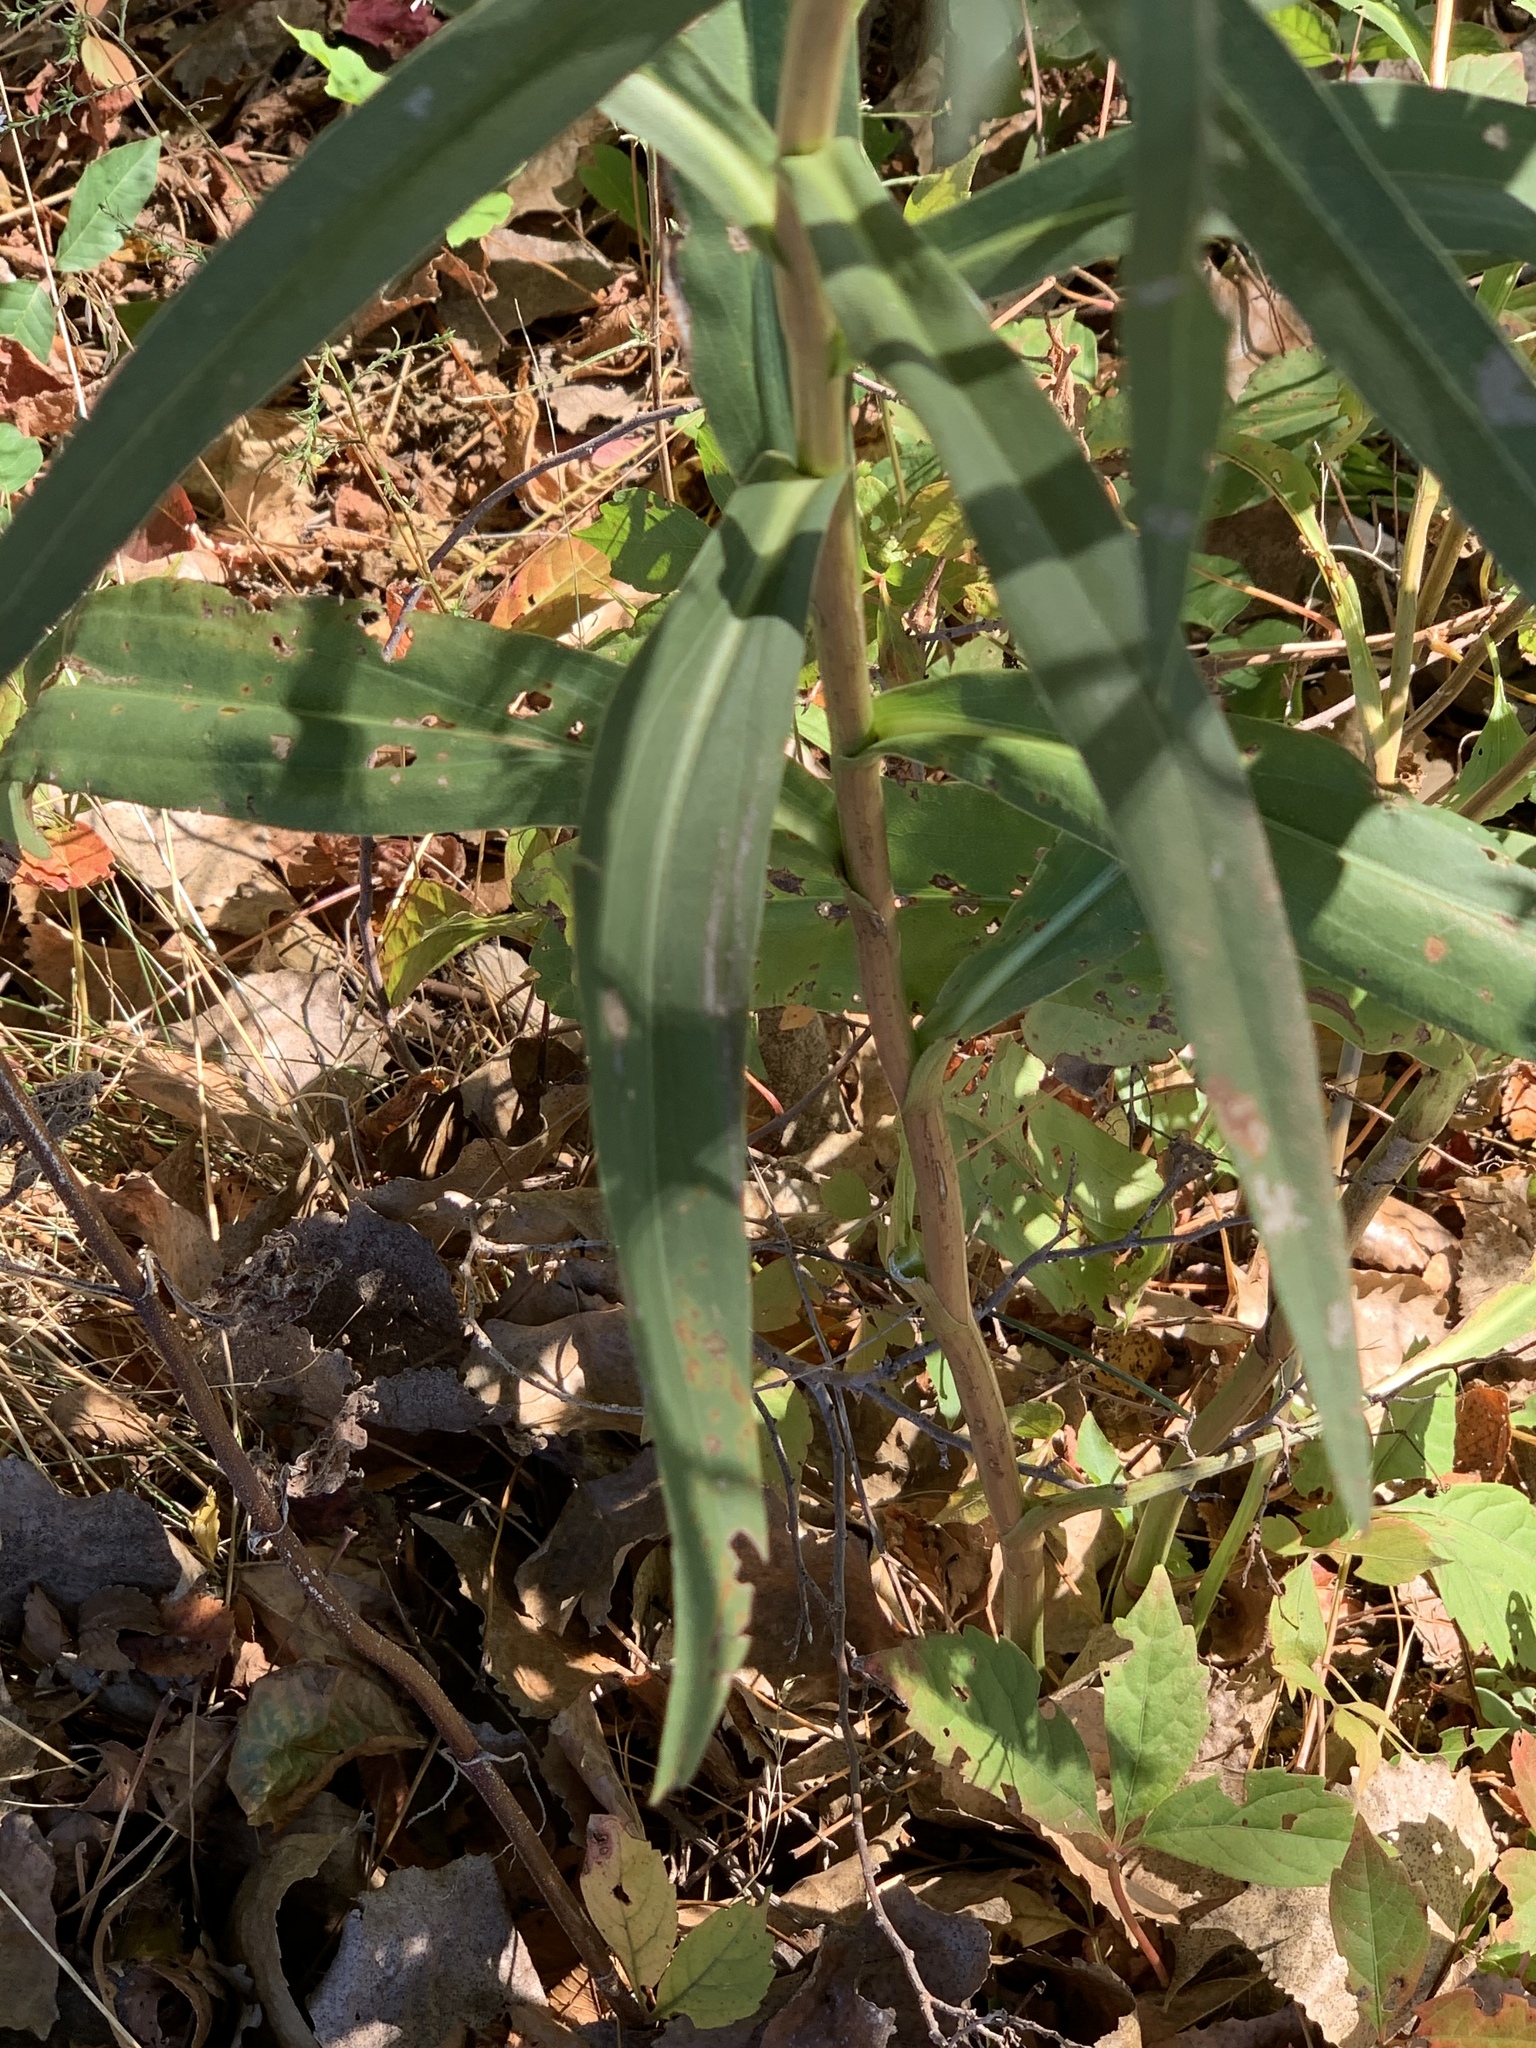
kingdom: Plantae
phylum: Tracheophyta
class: Magnoliopsida
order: Asterales
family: Asteraceae
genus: Solidago
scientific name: Solidago sempervirens
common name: Salt-marsh goldenrod
